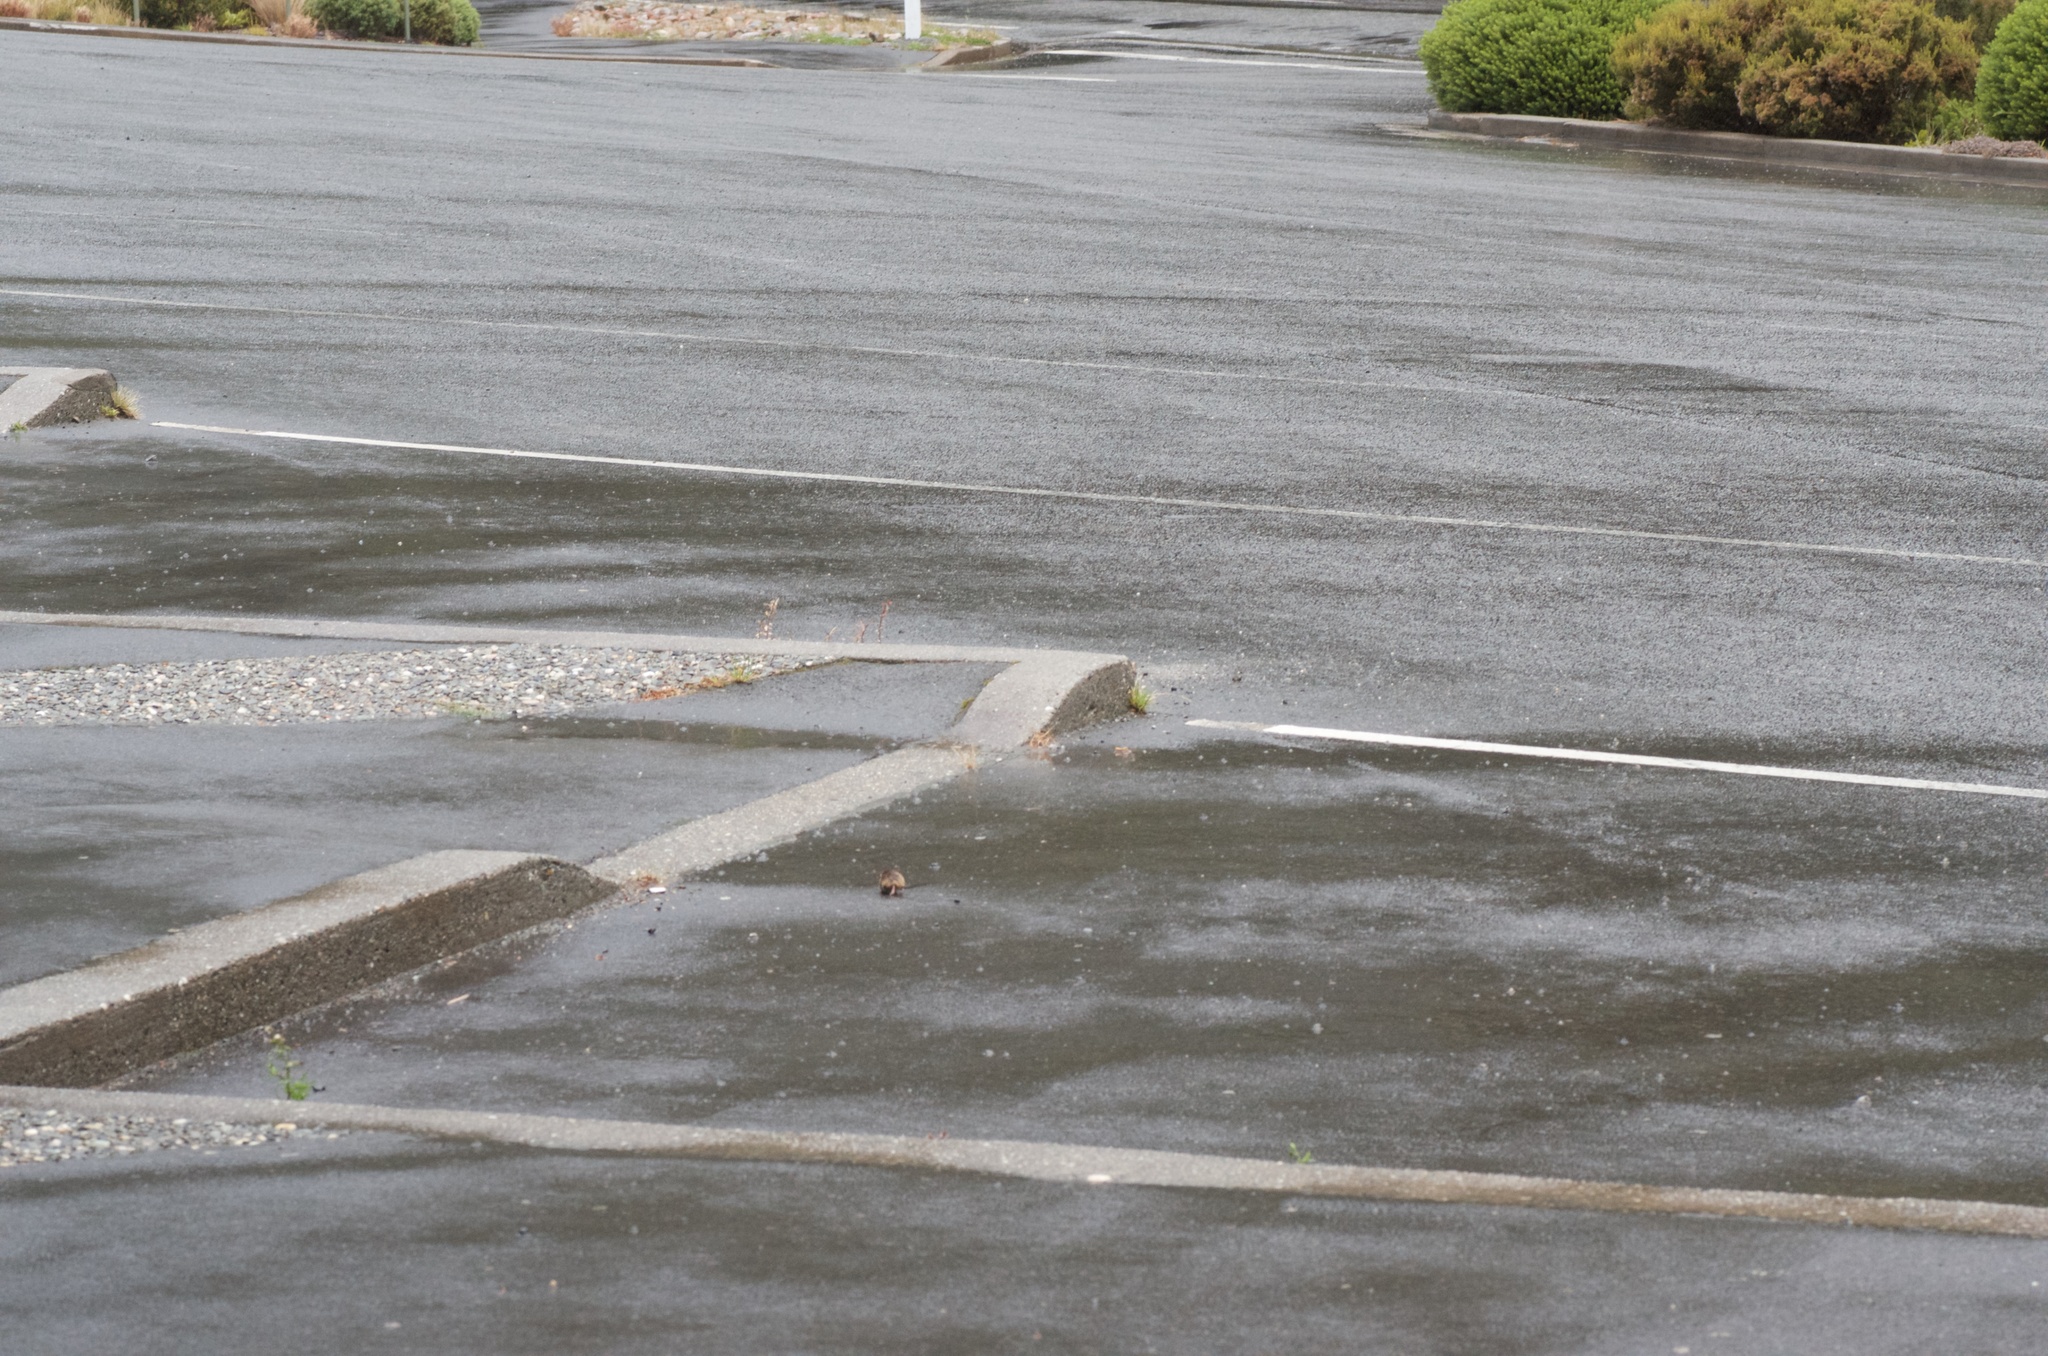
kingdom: Animalia
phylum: Chordata
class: Mammalia
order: Rodentia
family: Muridae
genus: Mus
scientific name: Mus musculus
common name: House mouse
